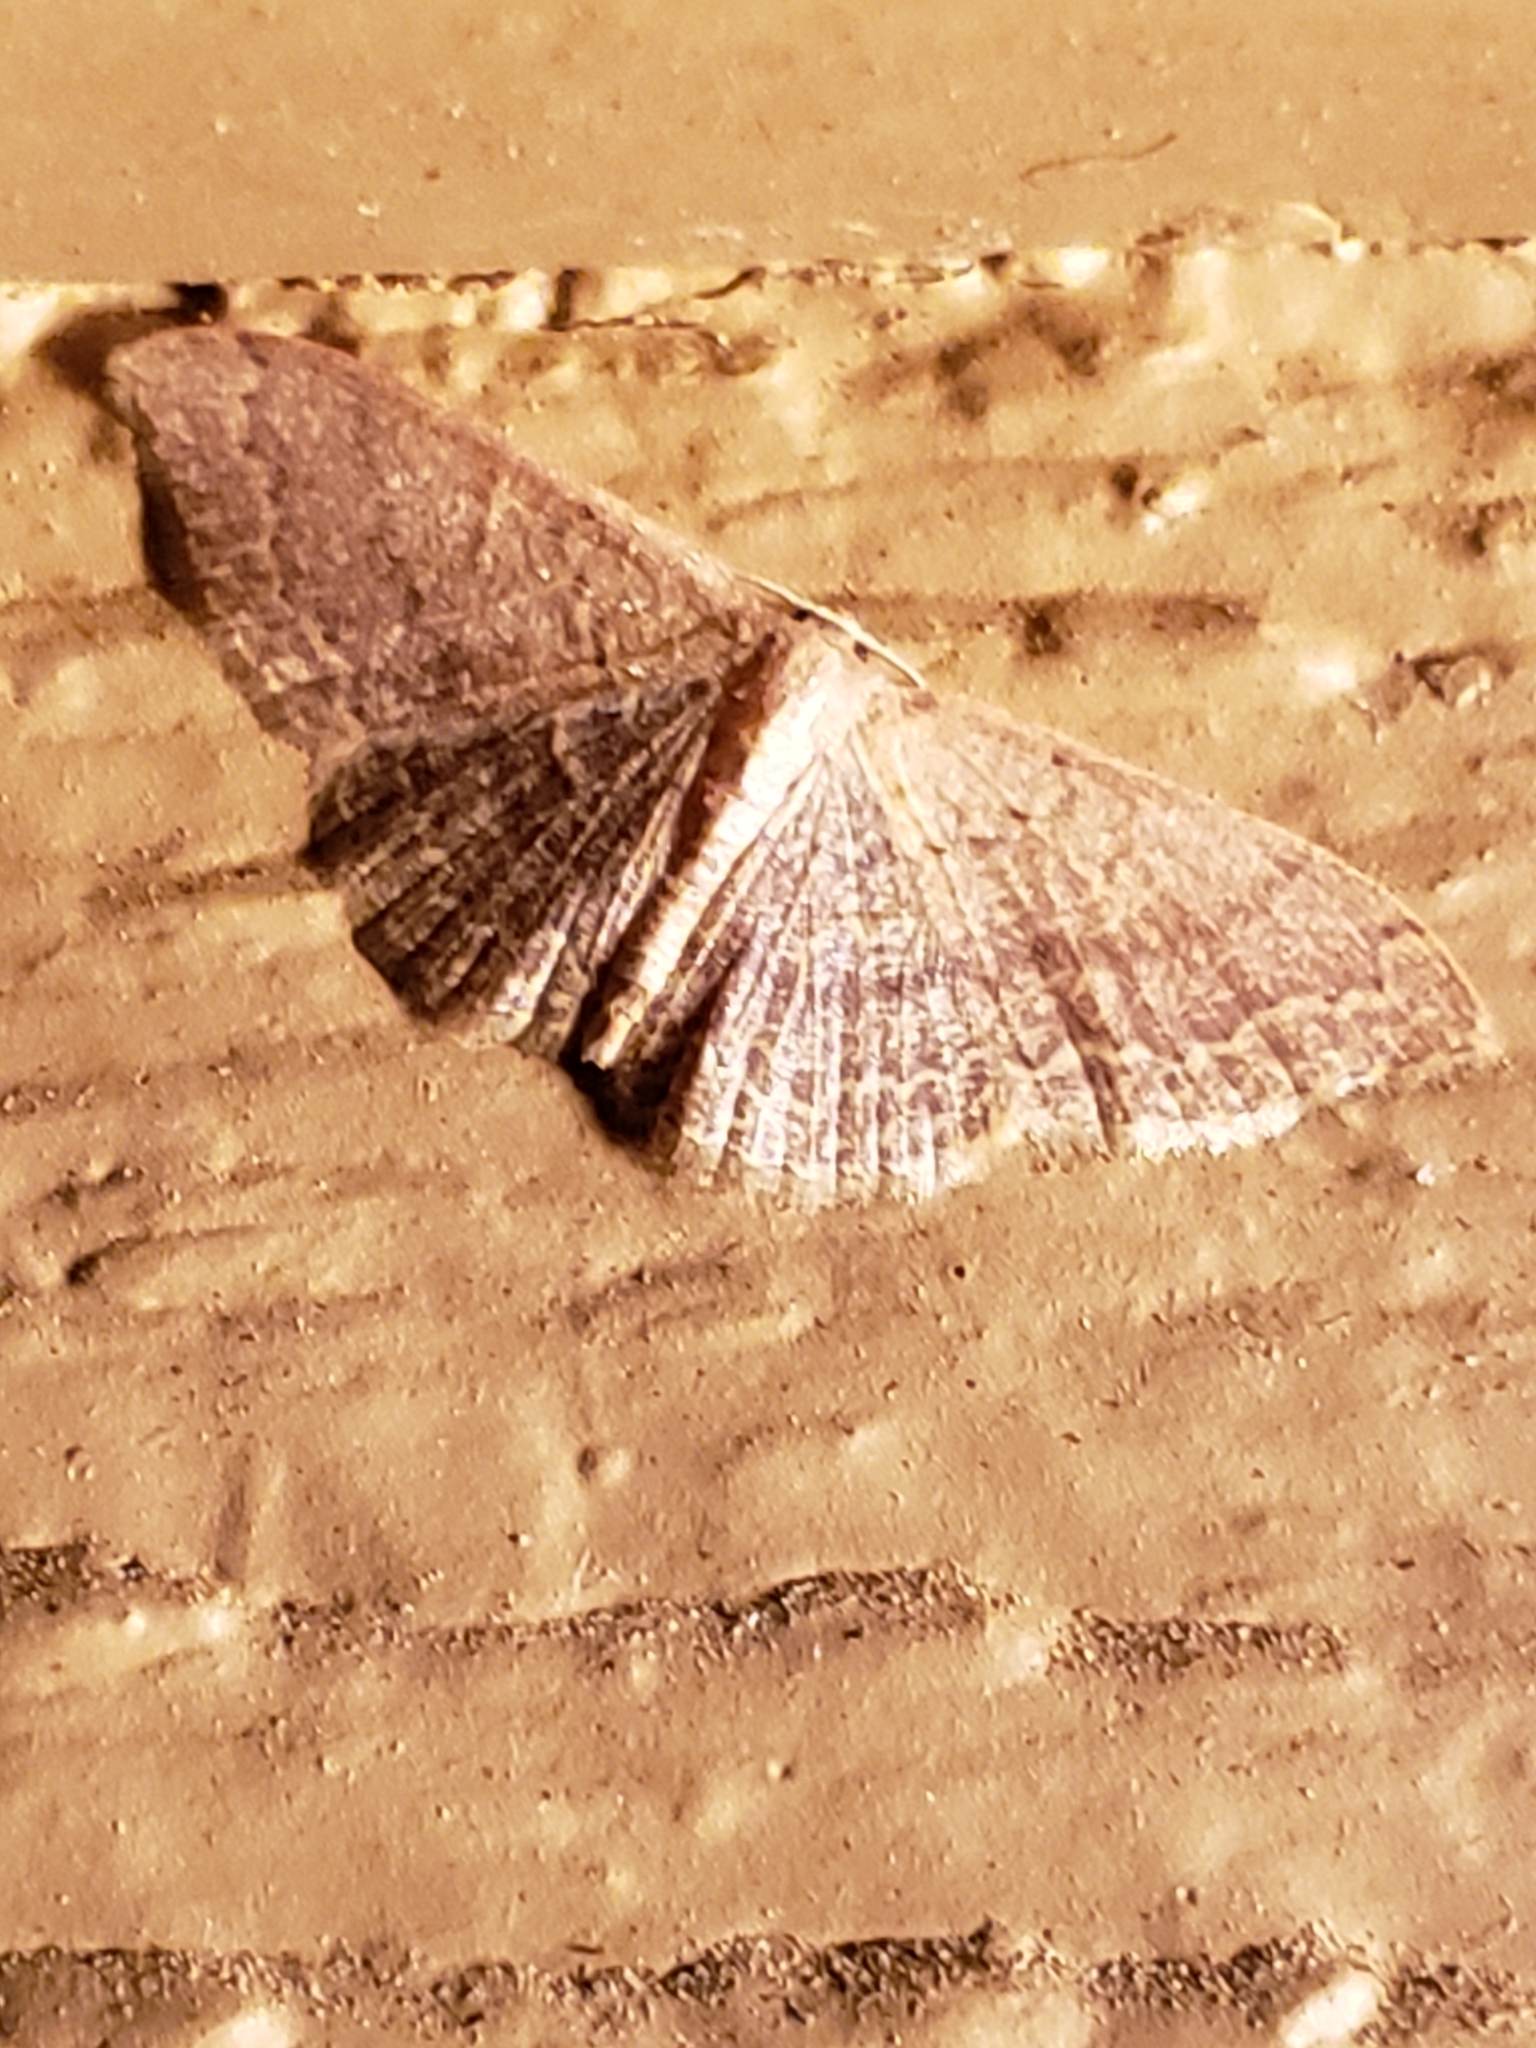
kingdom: Animalia
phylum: Arthropoda
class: Insecta
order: Lepidoptera
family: Geometridae
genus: Pleuroprucha
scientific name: Pleuroprucha insulsaria
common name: Common tan wave
